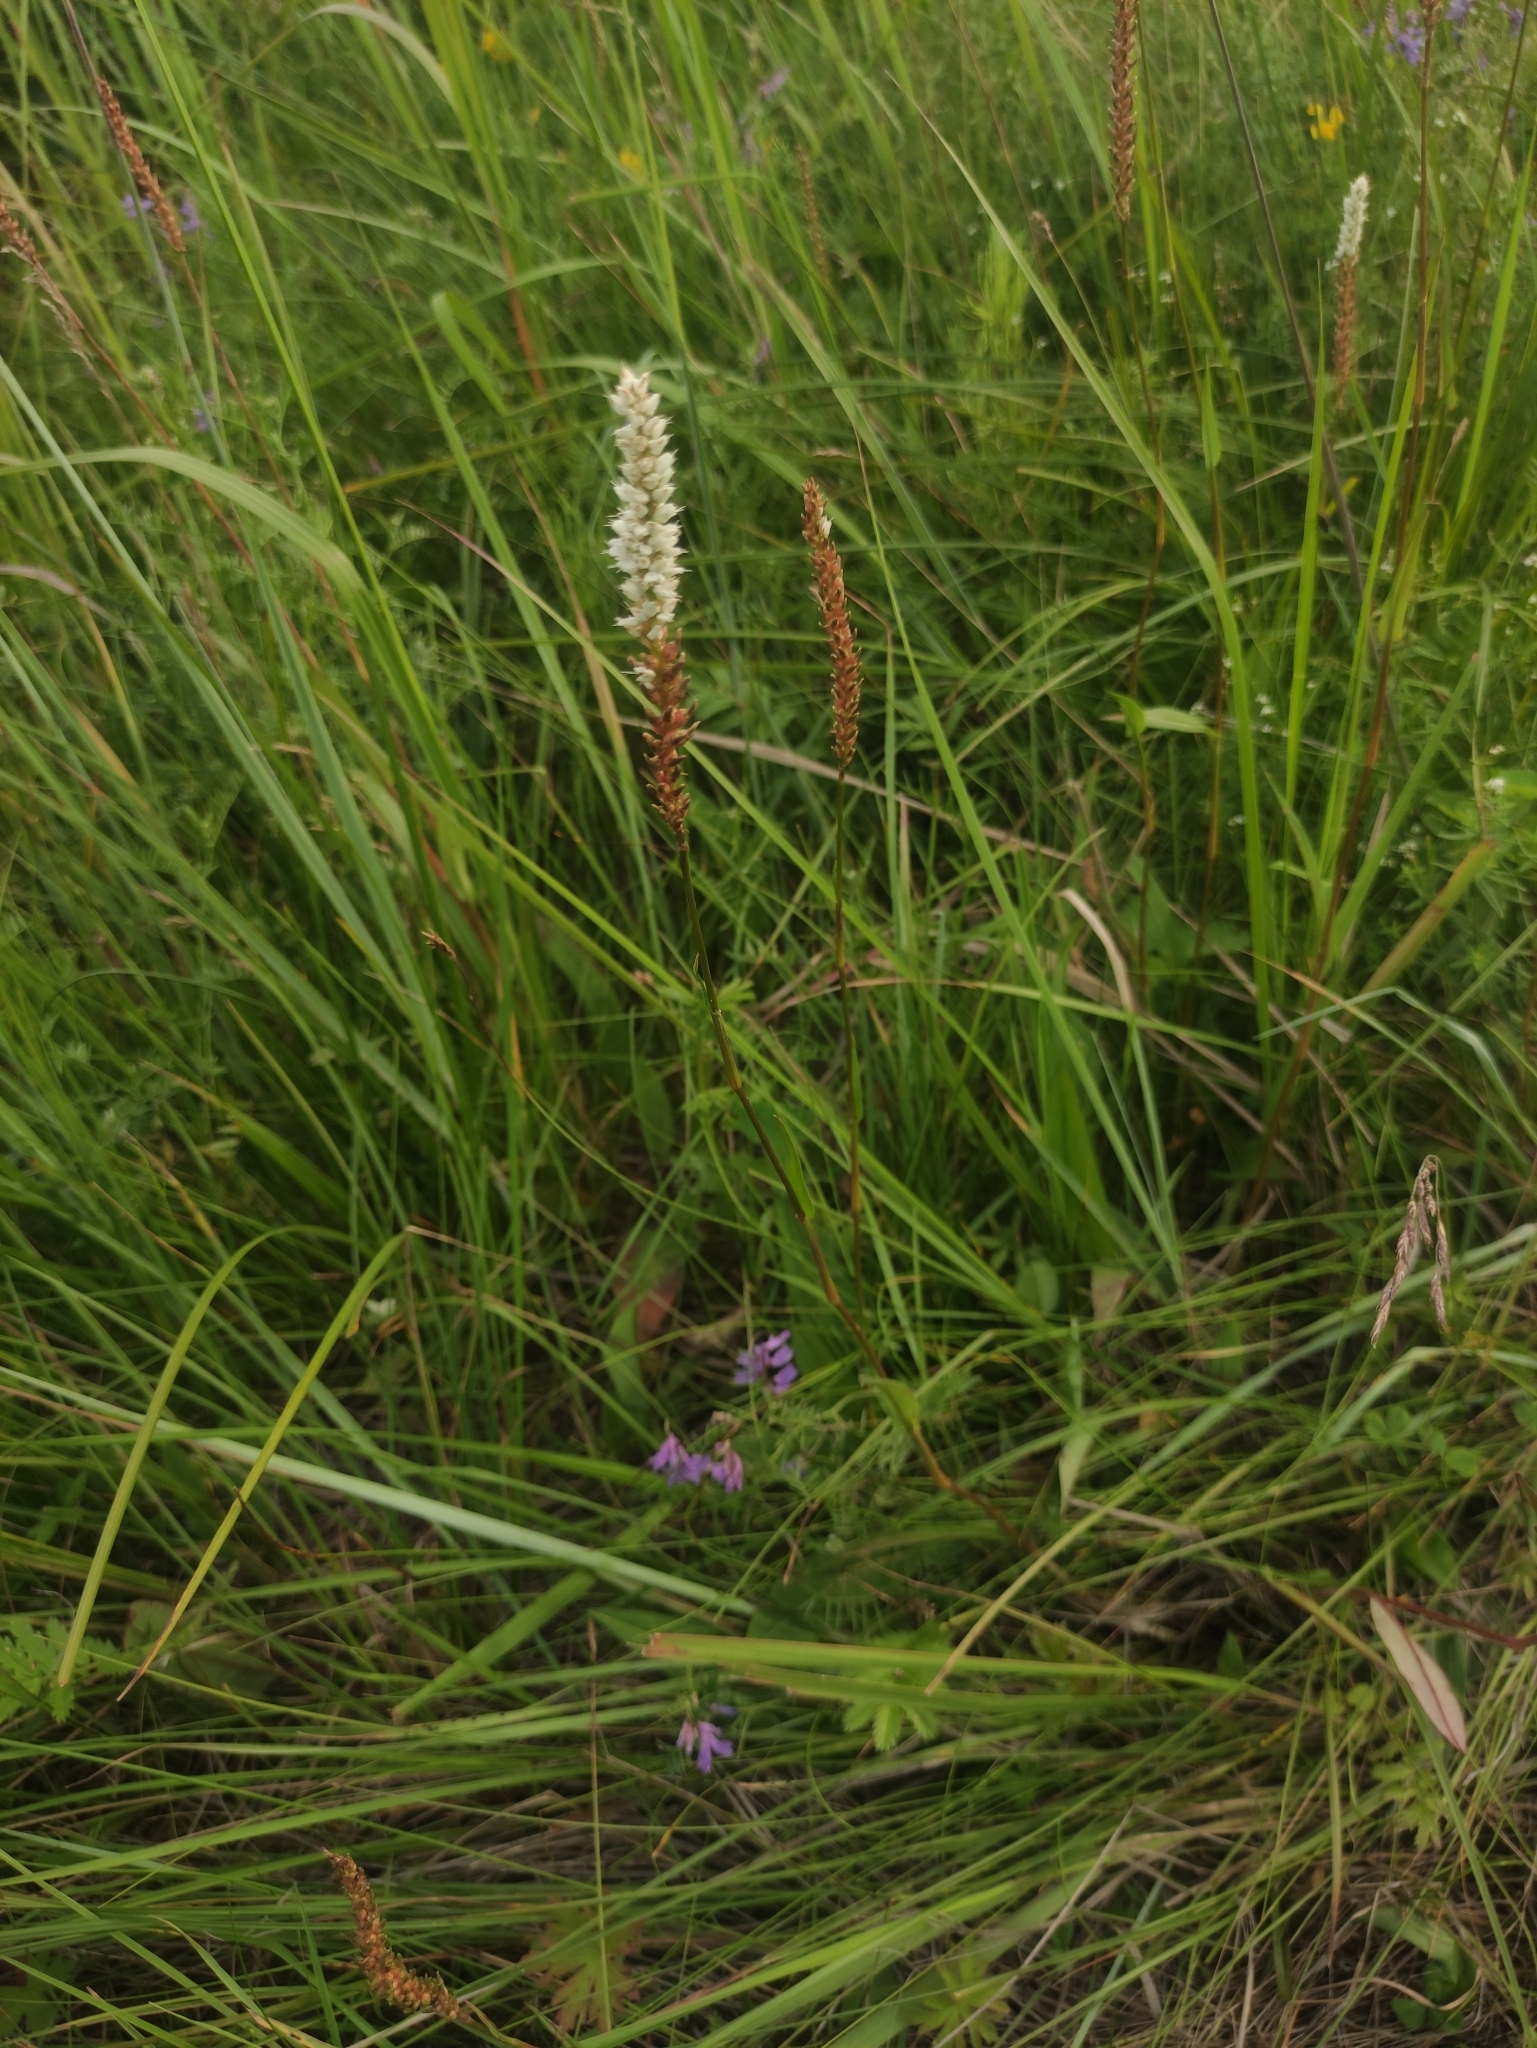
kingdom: Plantae
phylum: Tracheophyta
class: Magnoliopsida
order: Caryophyllales
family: Polygonaceae
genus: Bistorta
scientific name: Bistorta vivipara
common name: Alpine bistort
